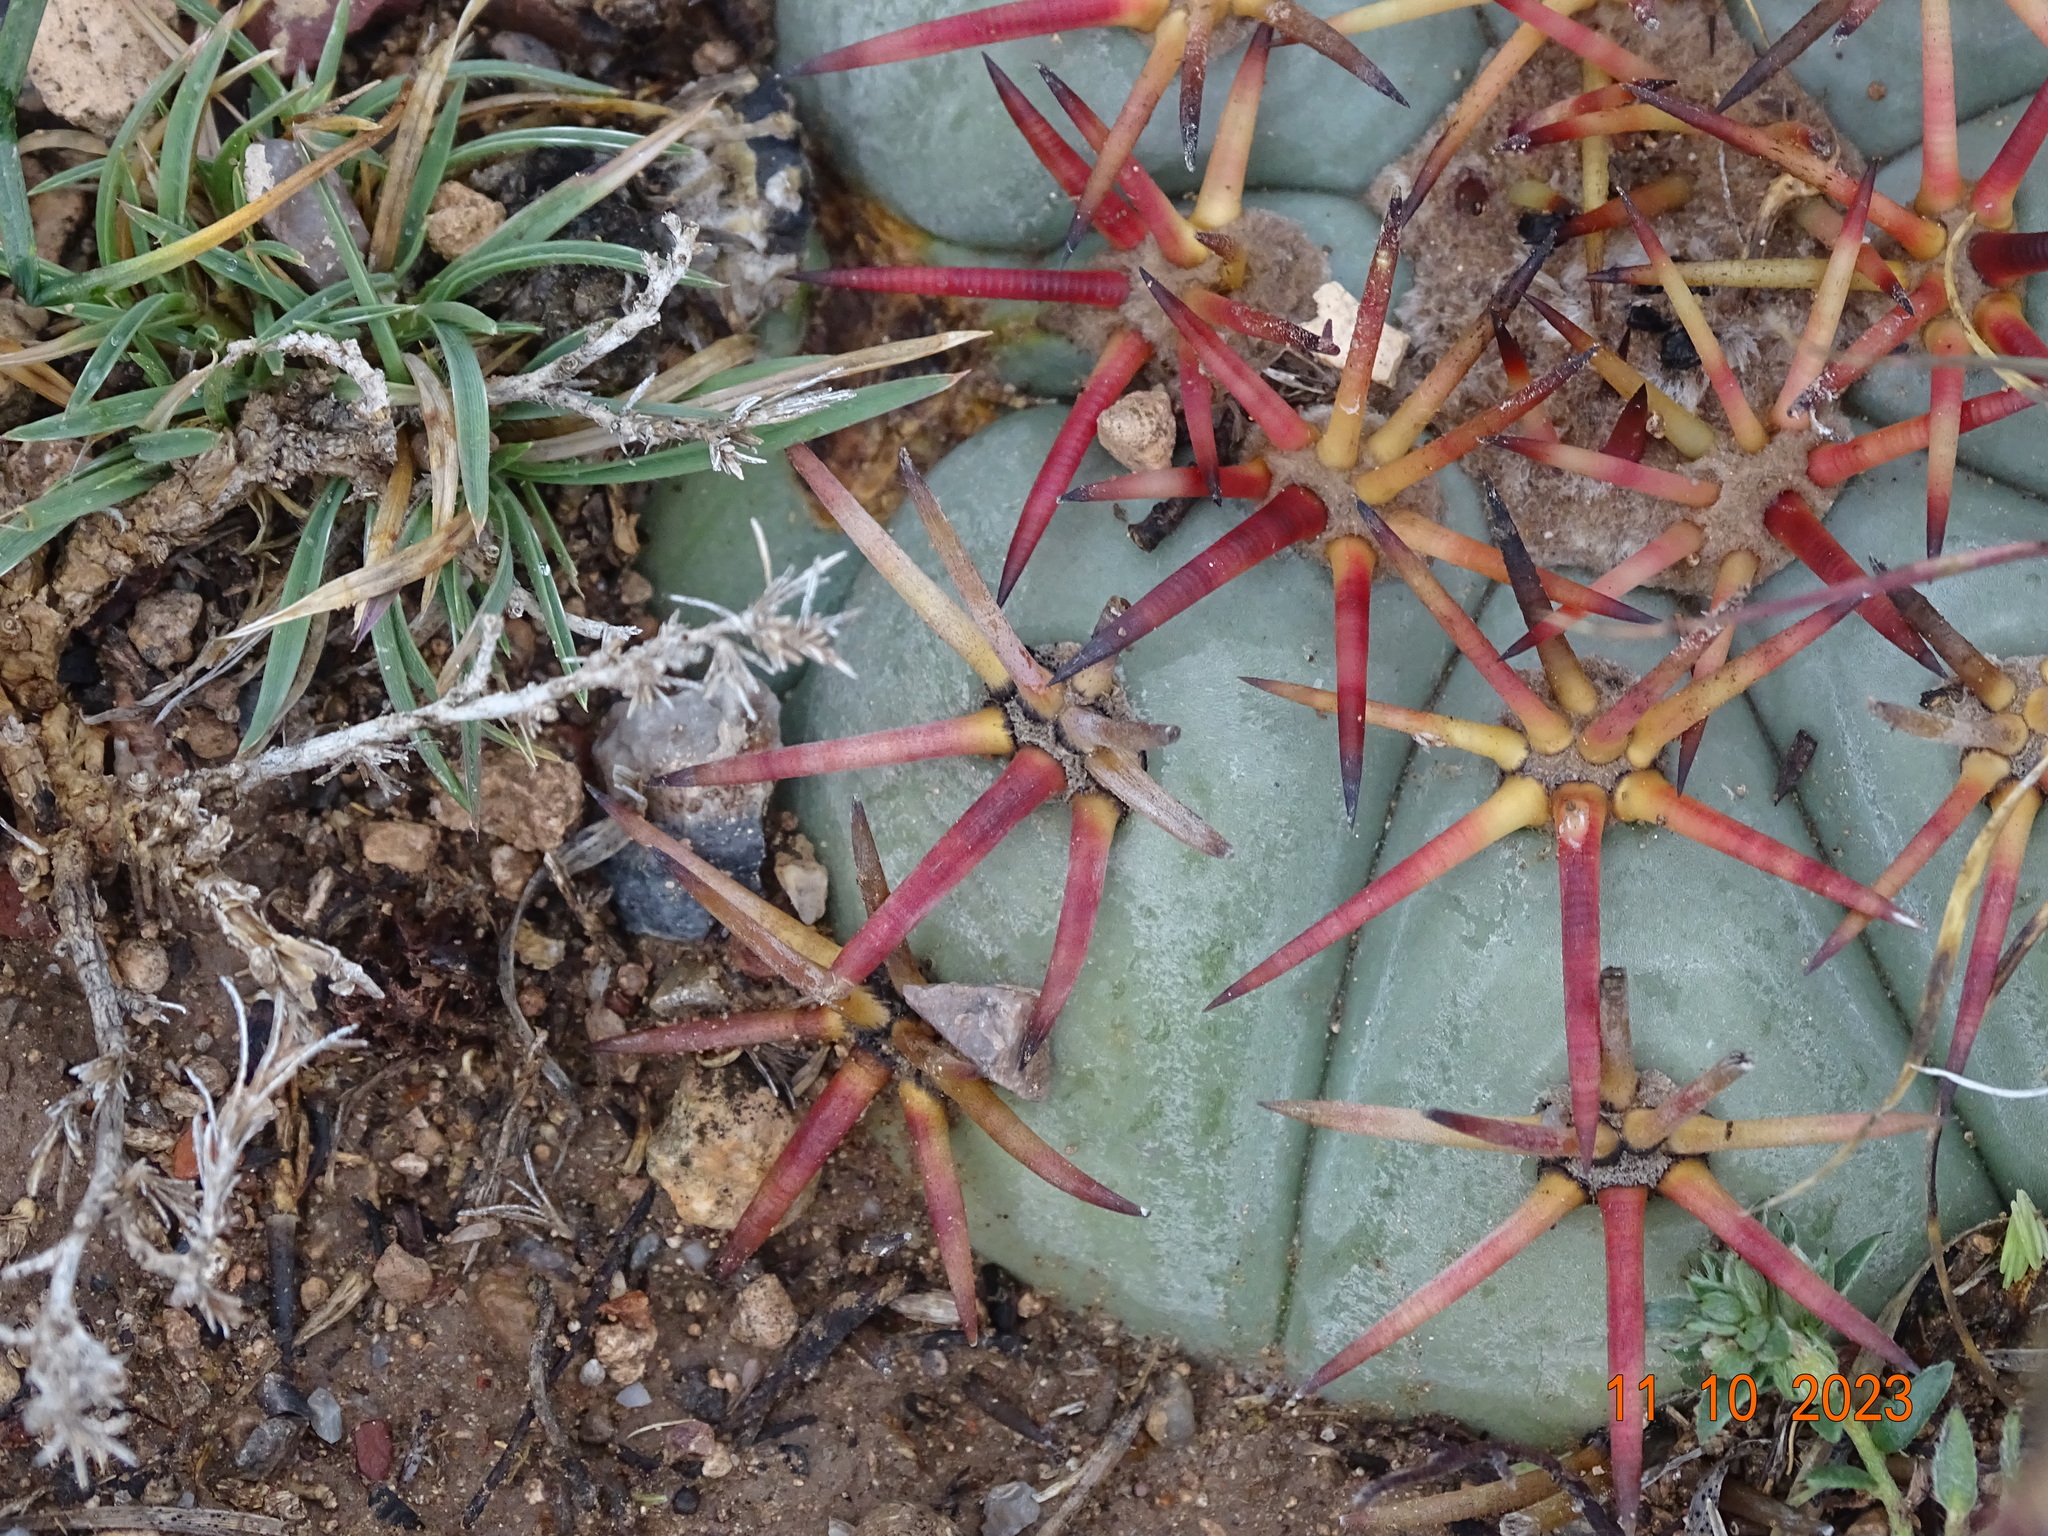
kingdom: Plantae
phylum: Tracheophyta
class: Magnoliopsida
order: Caryophyllales
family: Cactaceae
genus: Echinocactus
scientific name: Echinocactus horizonthalonius
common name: Devilshead
